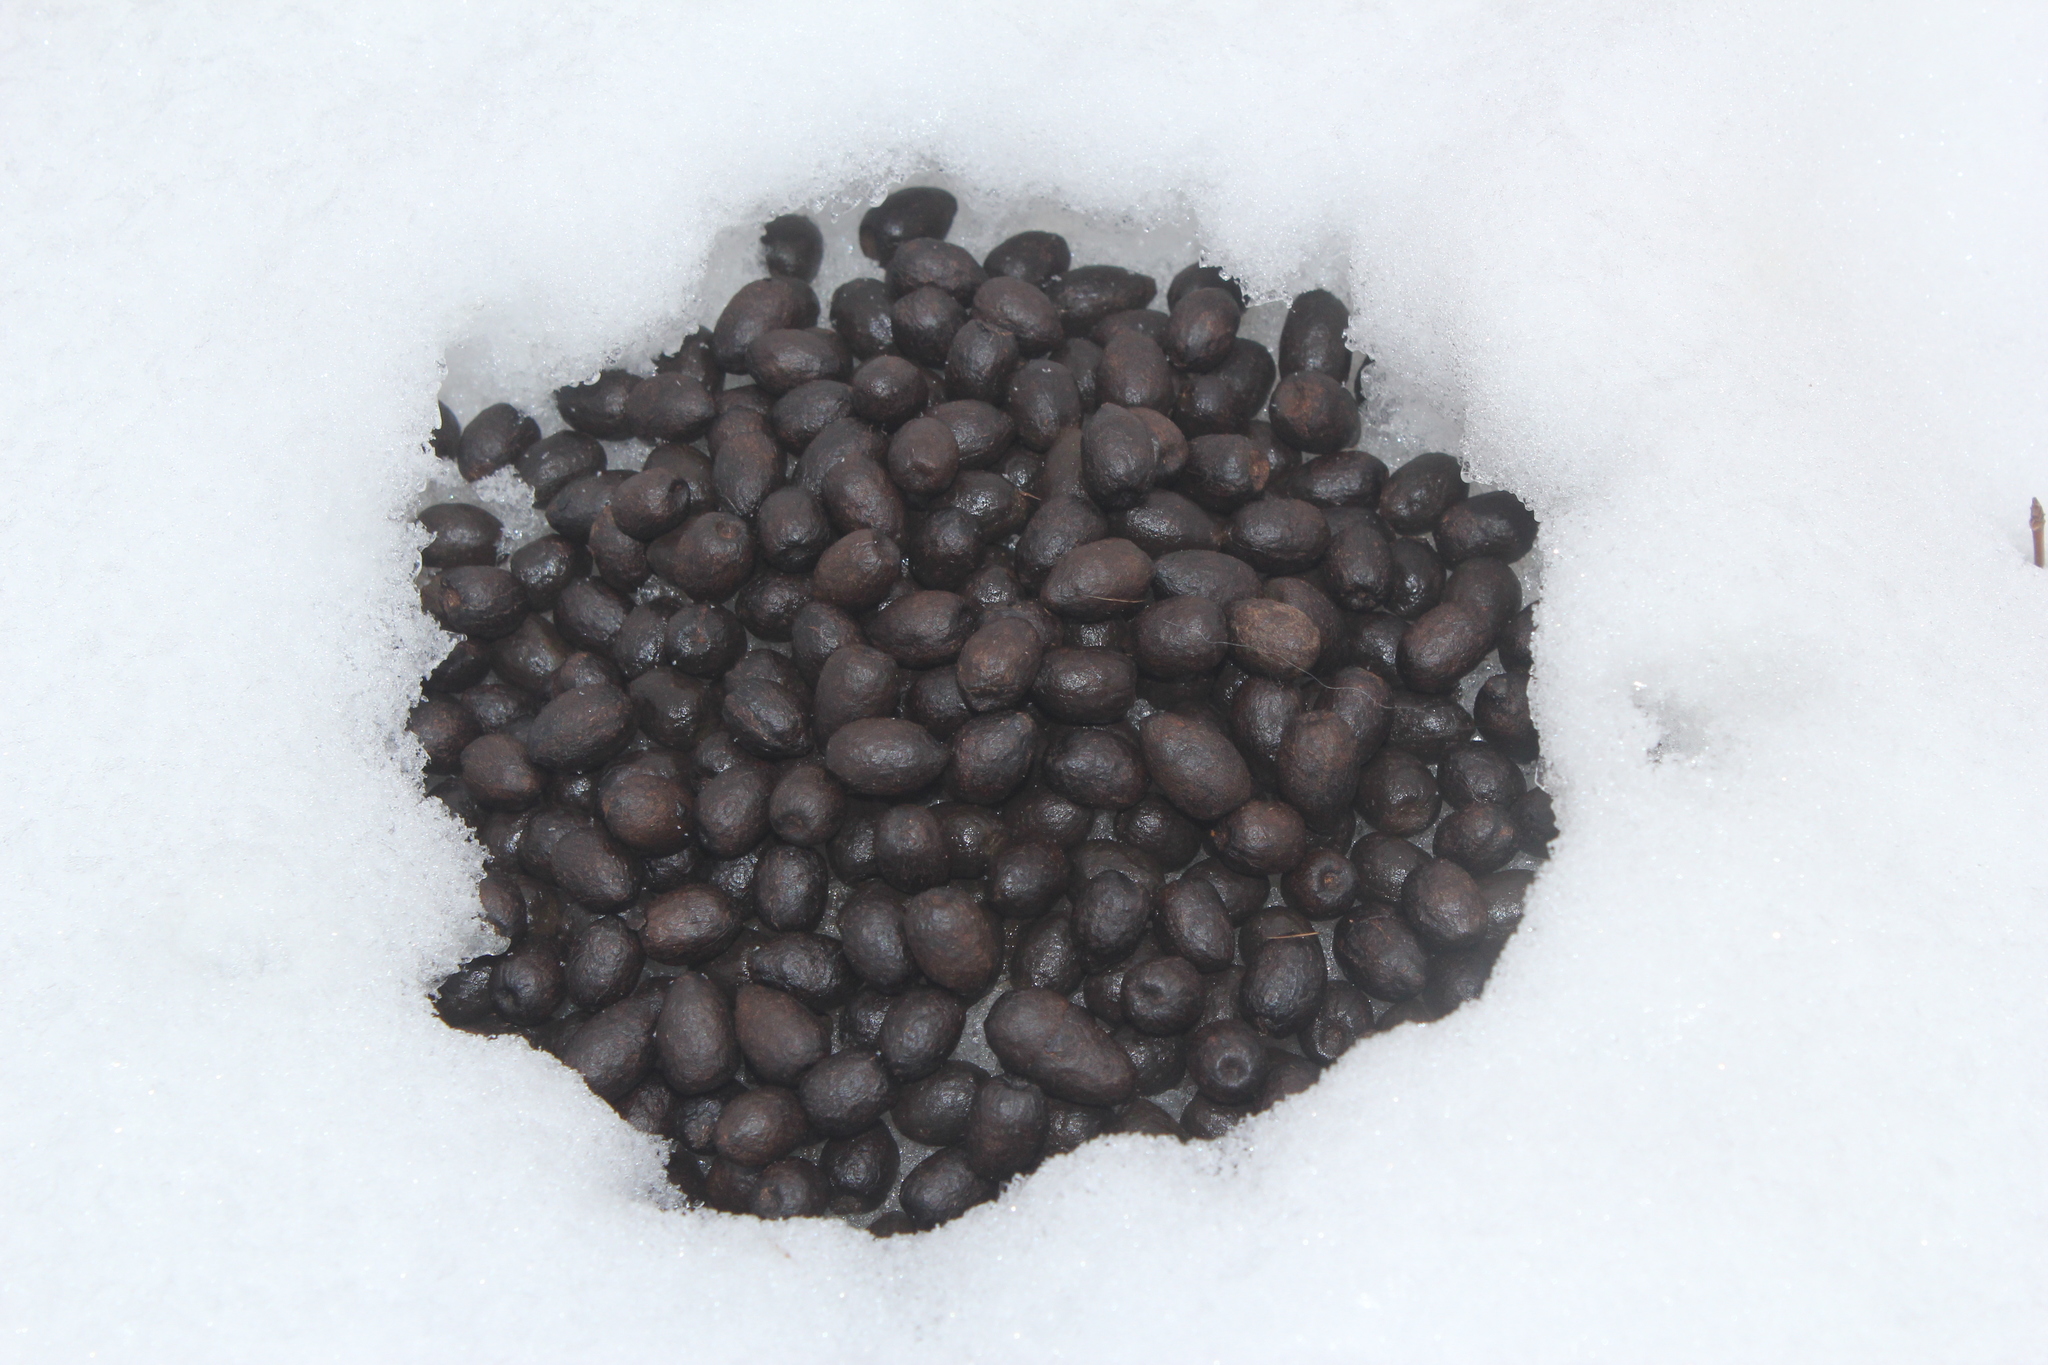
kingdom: Animalia
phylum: Chordata
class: Mammalia
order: Artiodactyla
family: Cervidae
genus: Odocoileus
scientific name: Odocoileus virginianus
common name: White-tailed deer
